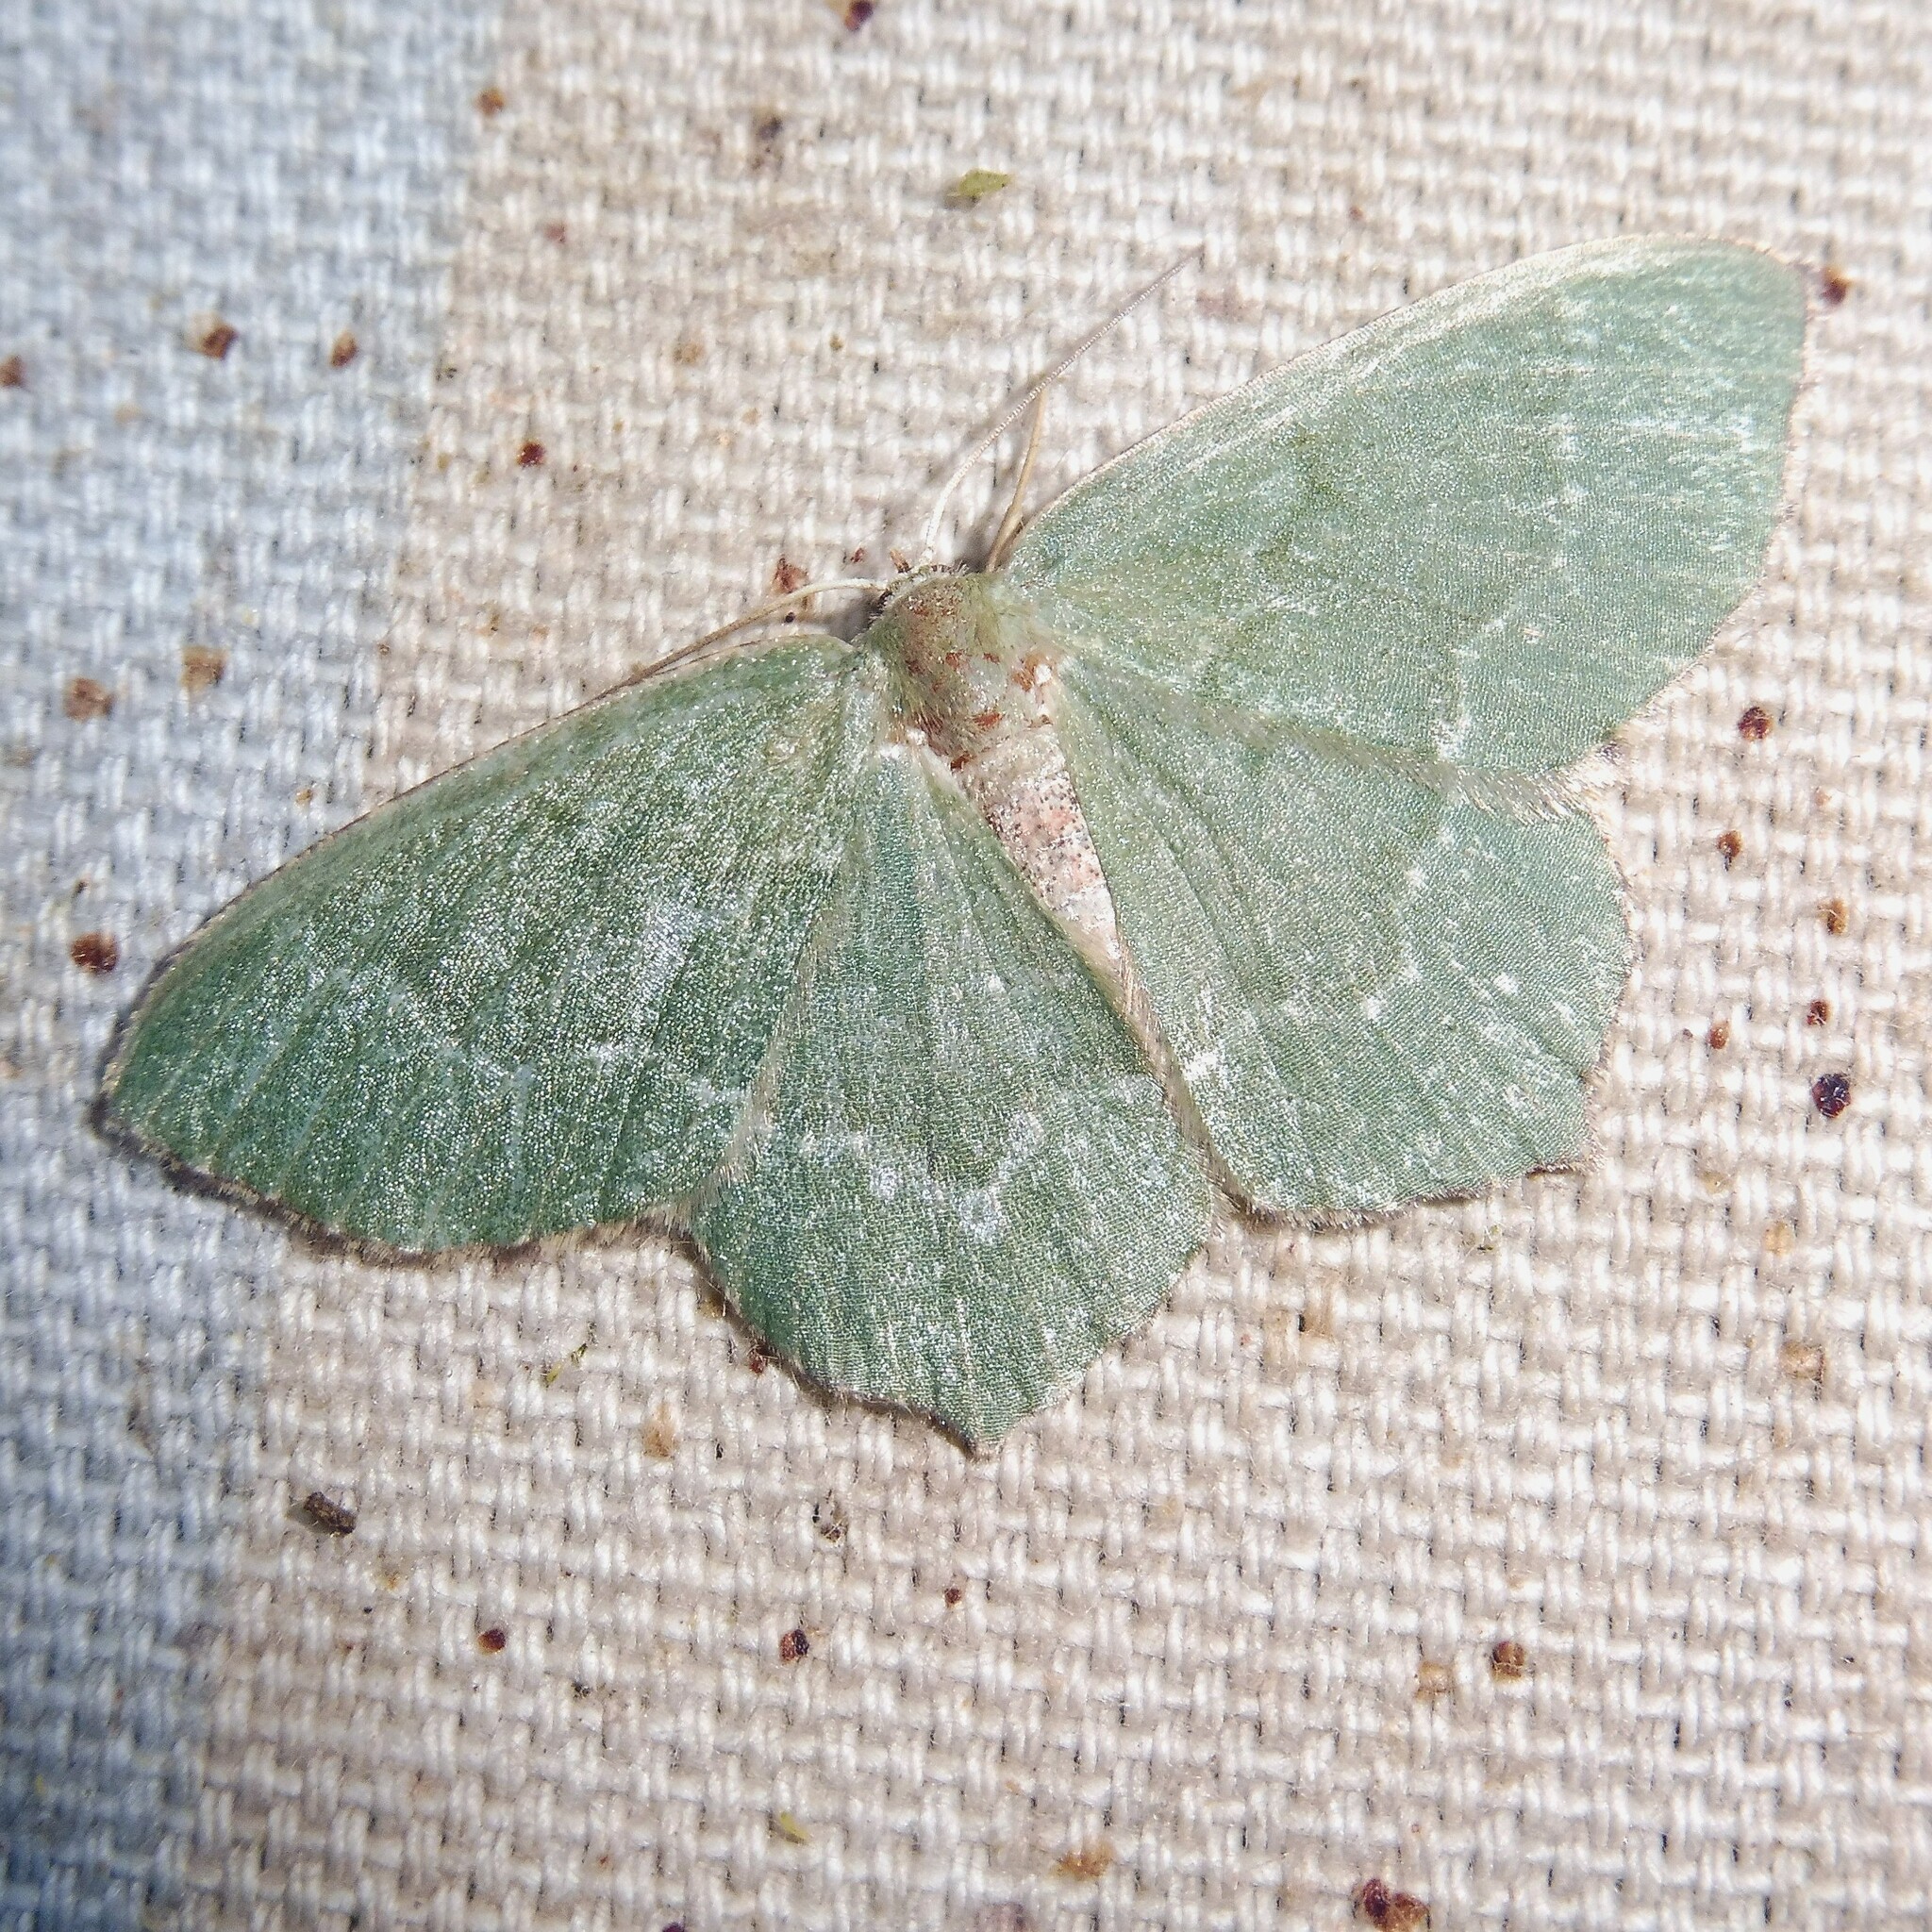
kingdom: Animalia
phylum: Arthropoda
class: Insecta
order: Lepidoptera
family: Geometridae
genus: Hemithea
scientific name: Hemithea aestivaria
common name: Common emerald
